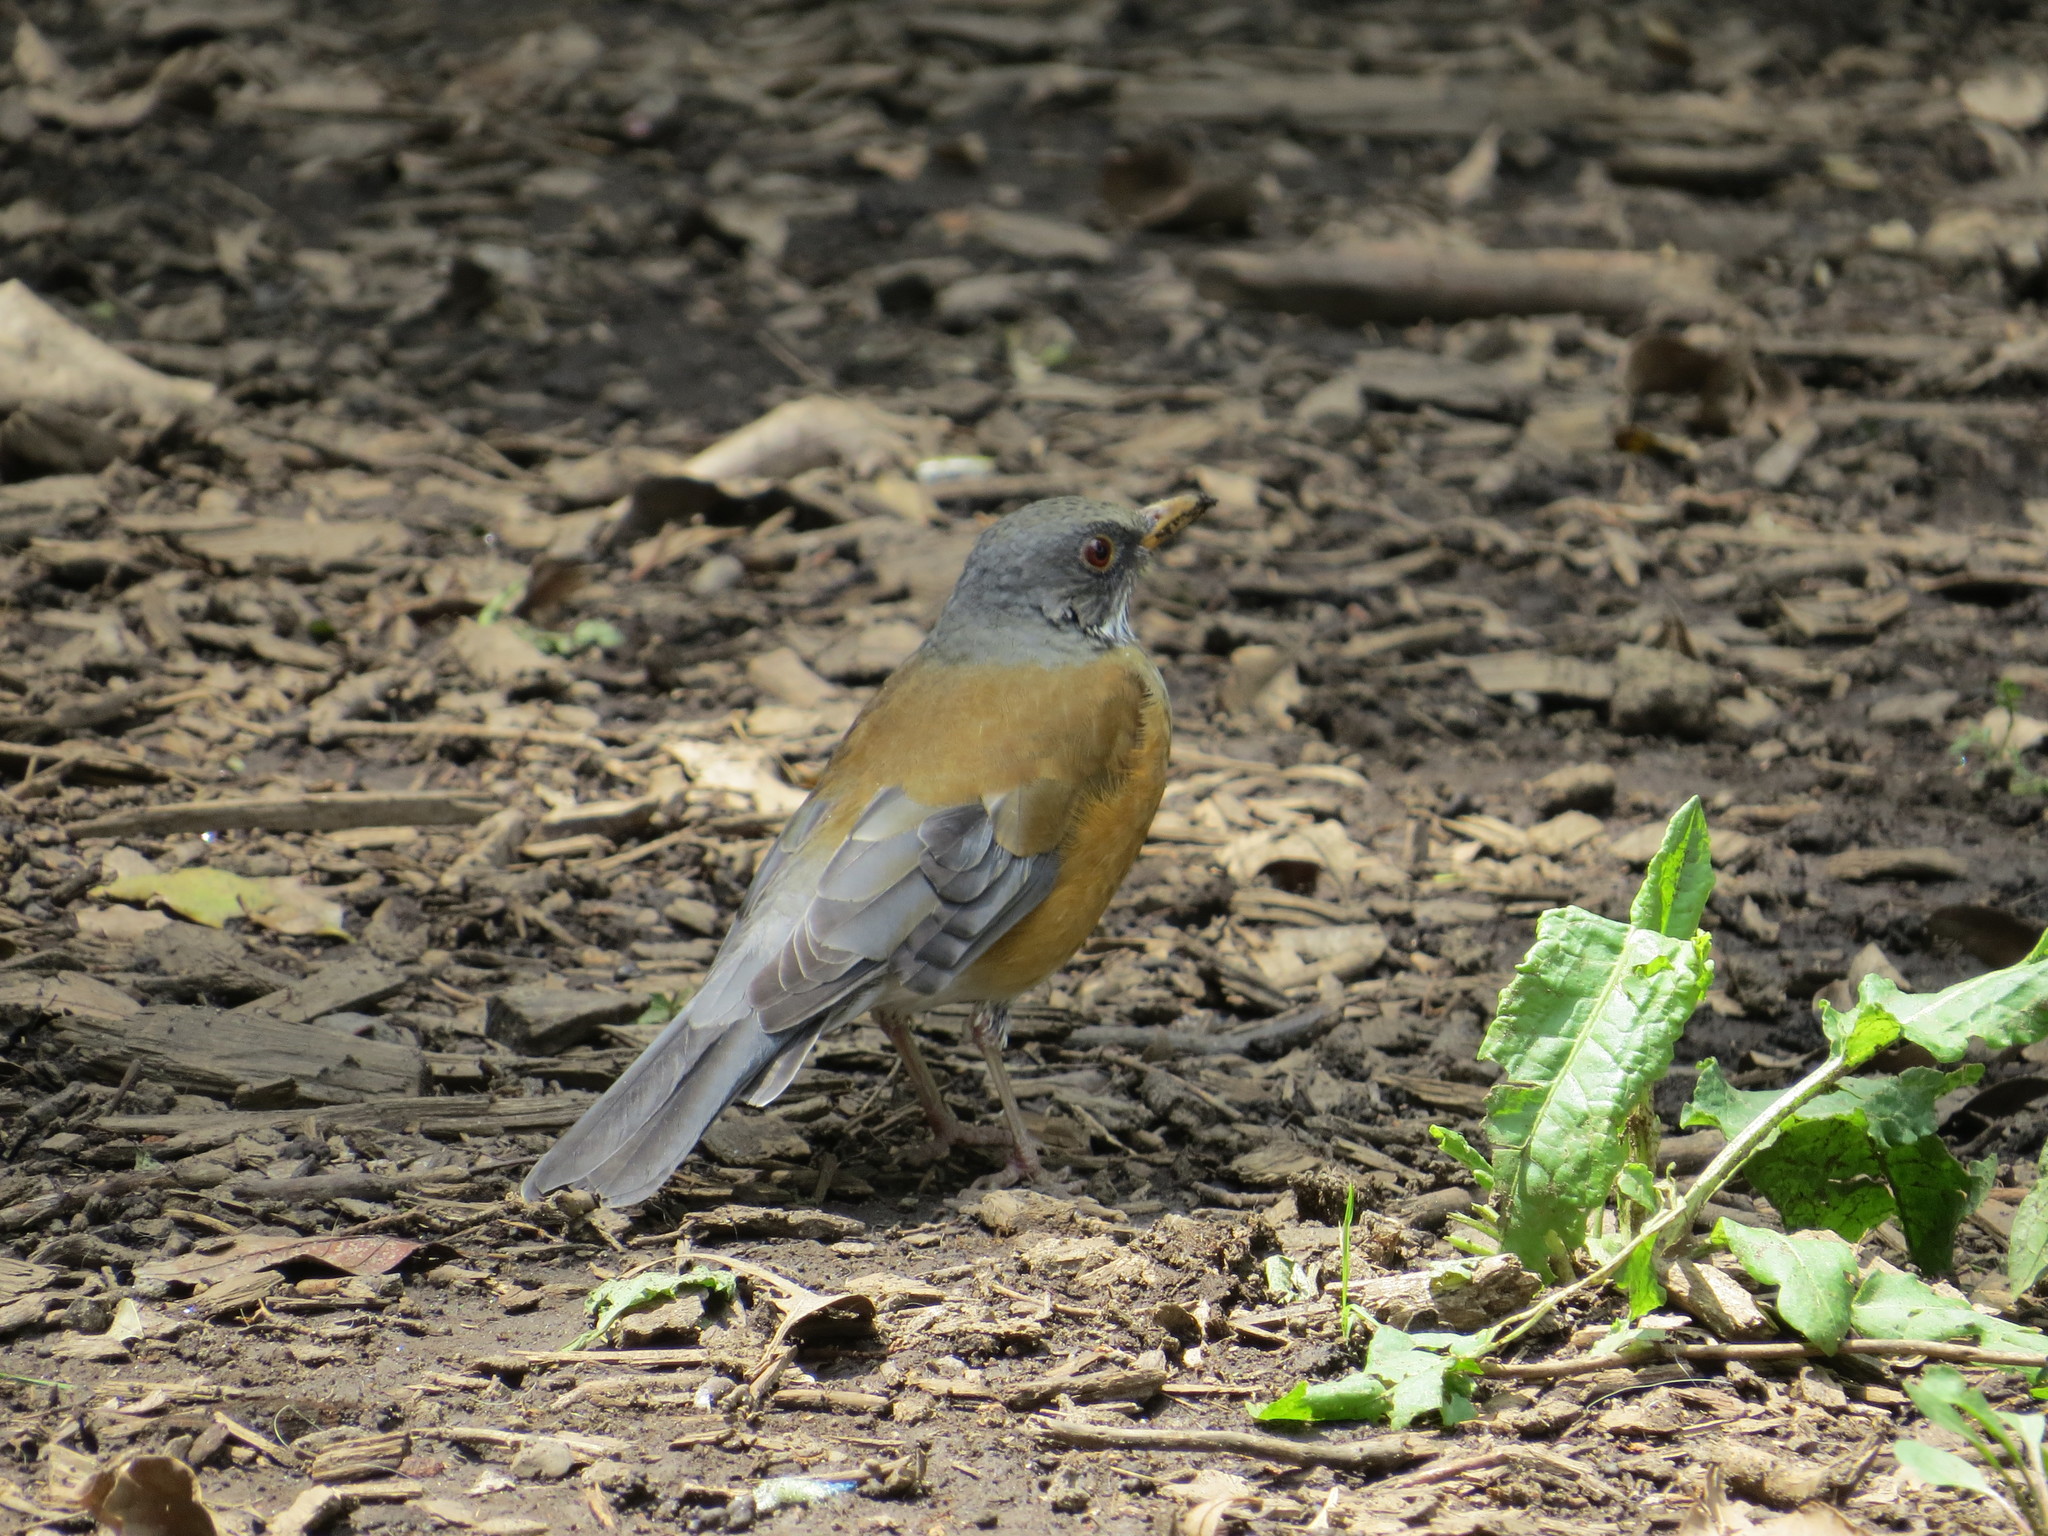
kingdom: Animalia
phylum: Chordata
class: Aves
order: Passeriformes
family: Turdidae
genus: Turdus
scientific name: Turdus rufopalliatus
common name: Rufous-backed robin
